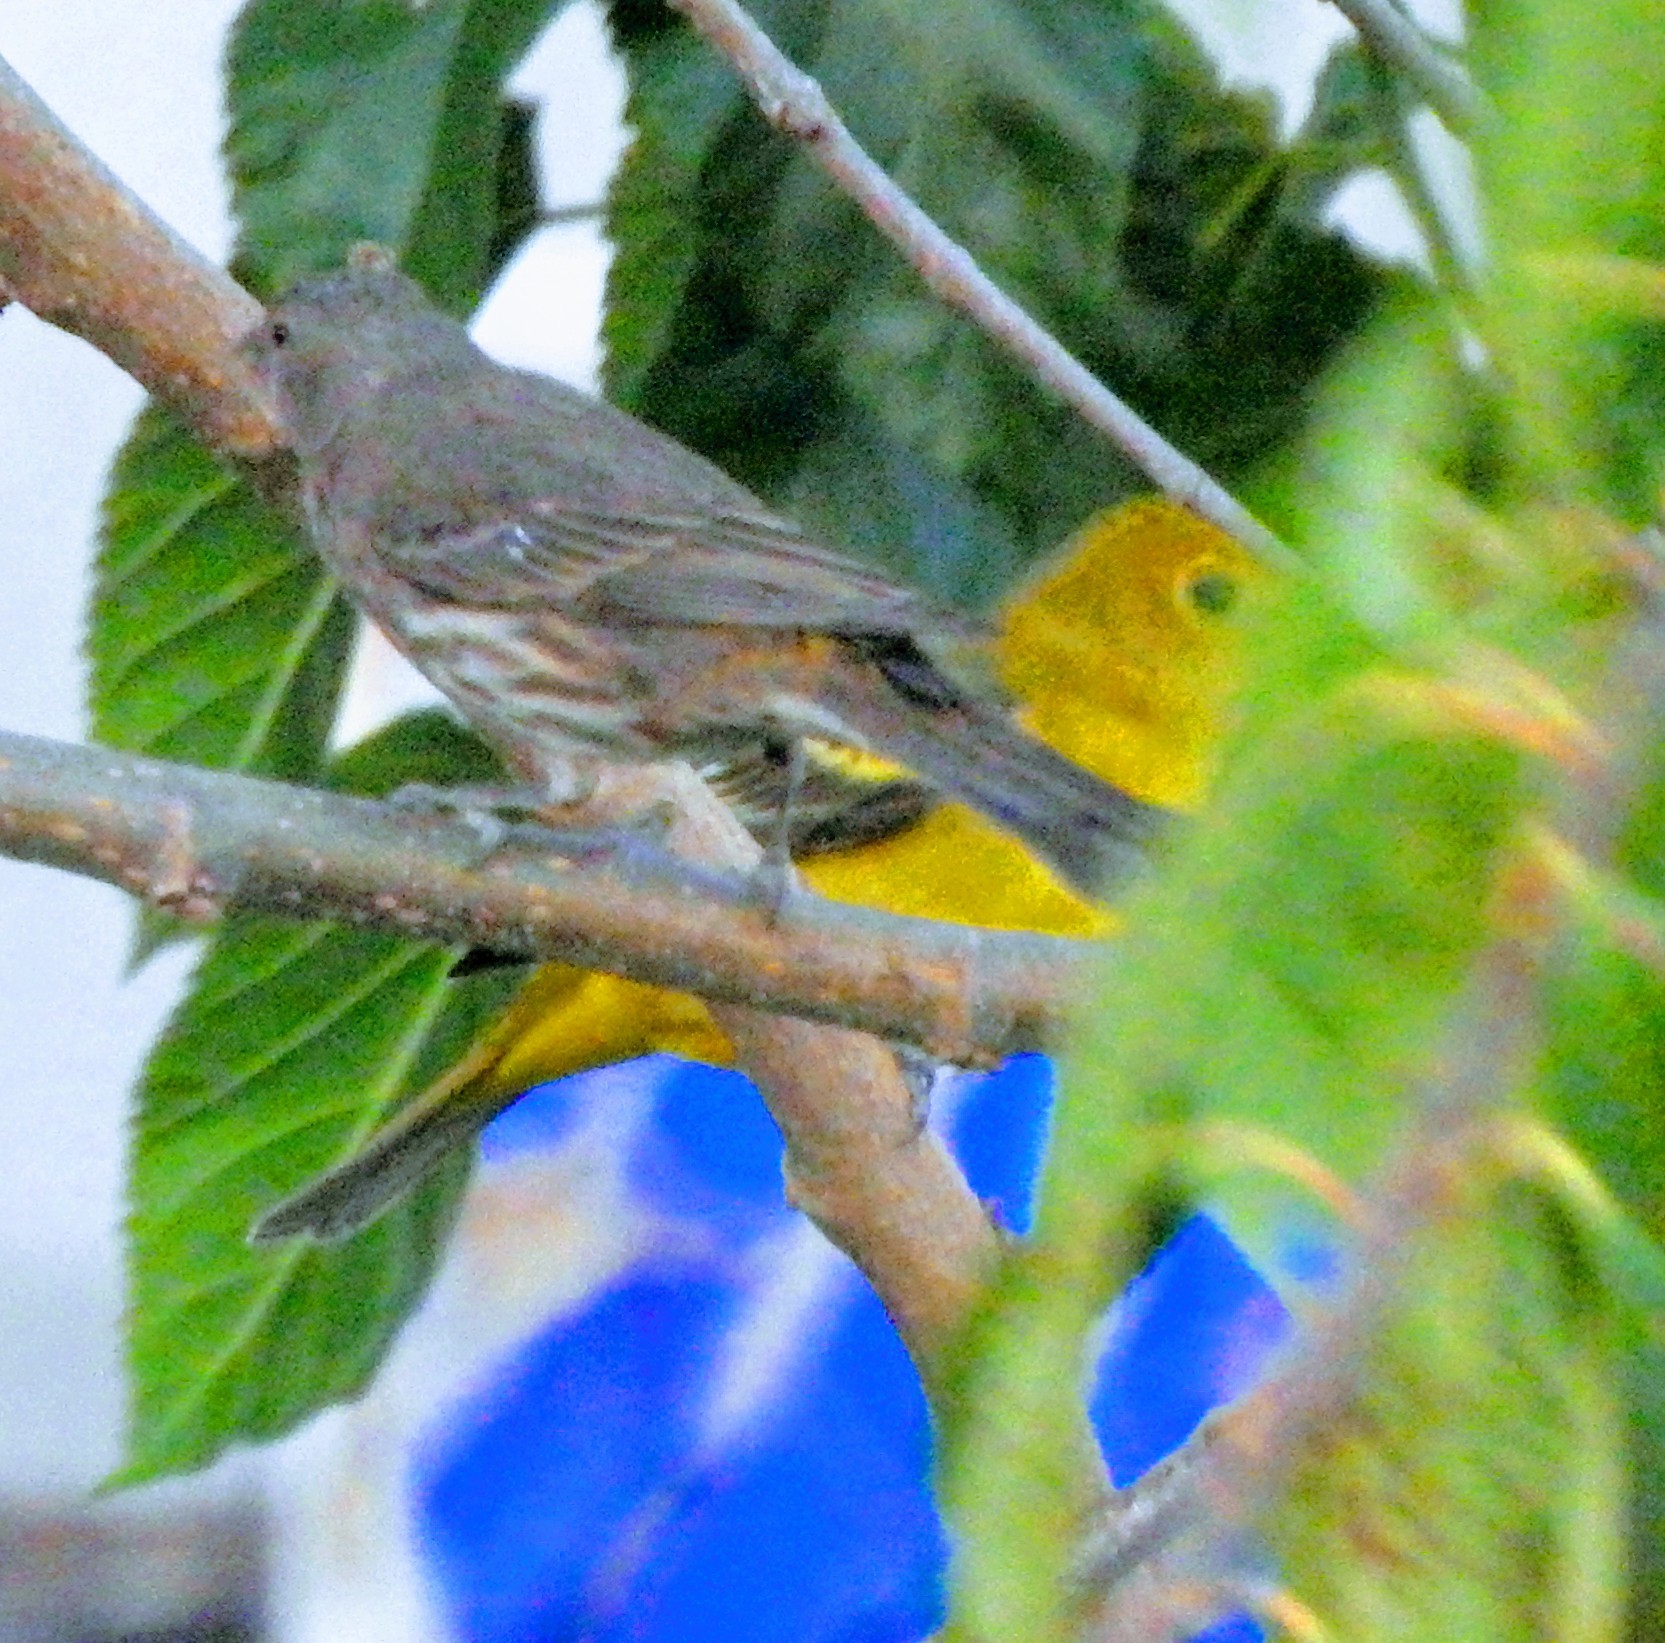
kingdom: Animalia
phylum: Chordata
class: Aves
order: Passeriformes
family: Cardinalidae
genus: Piranga
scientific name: Piranga ludoviciana
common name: Western tanager
